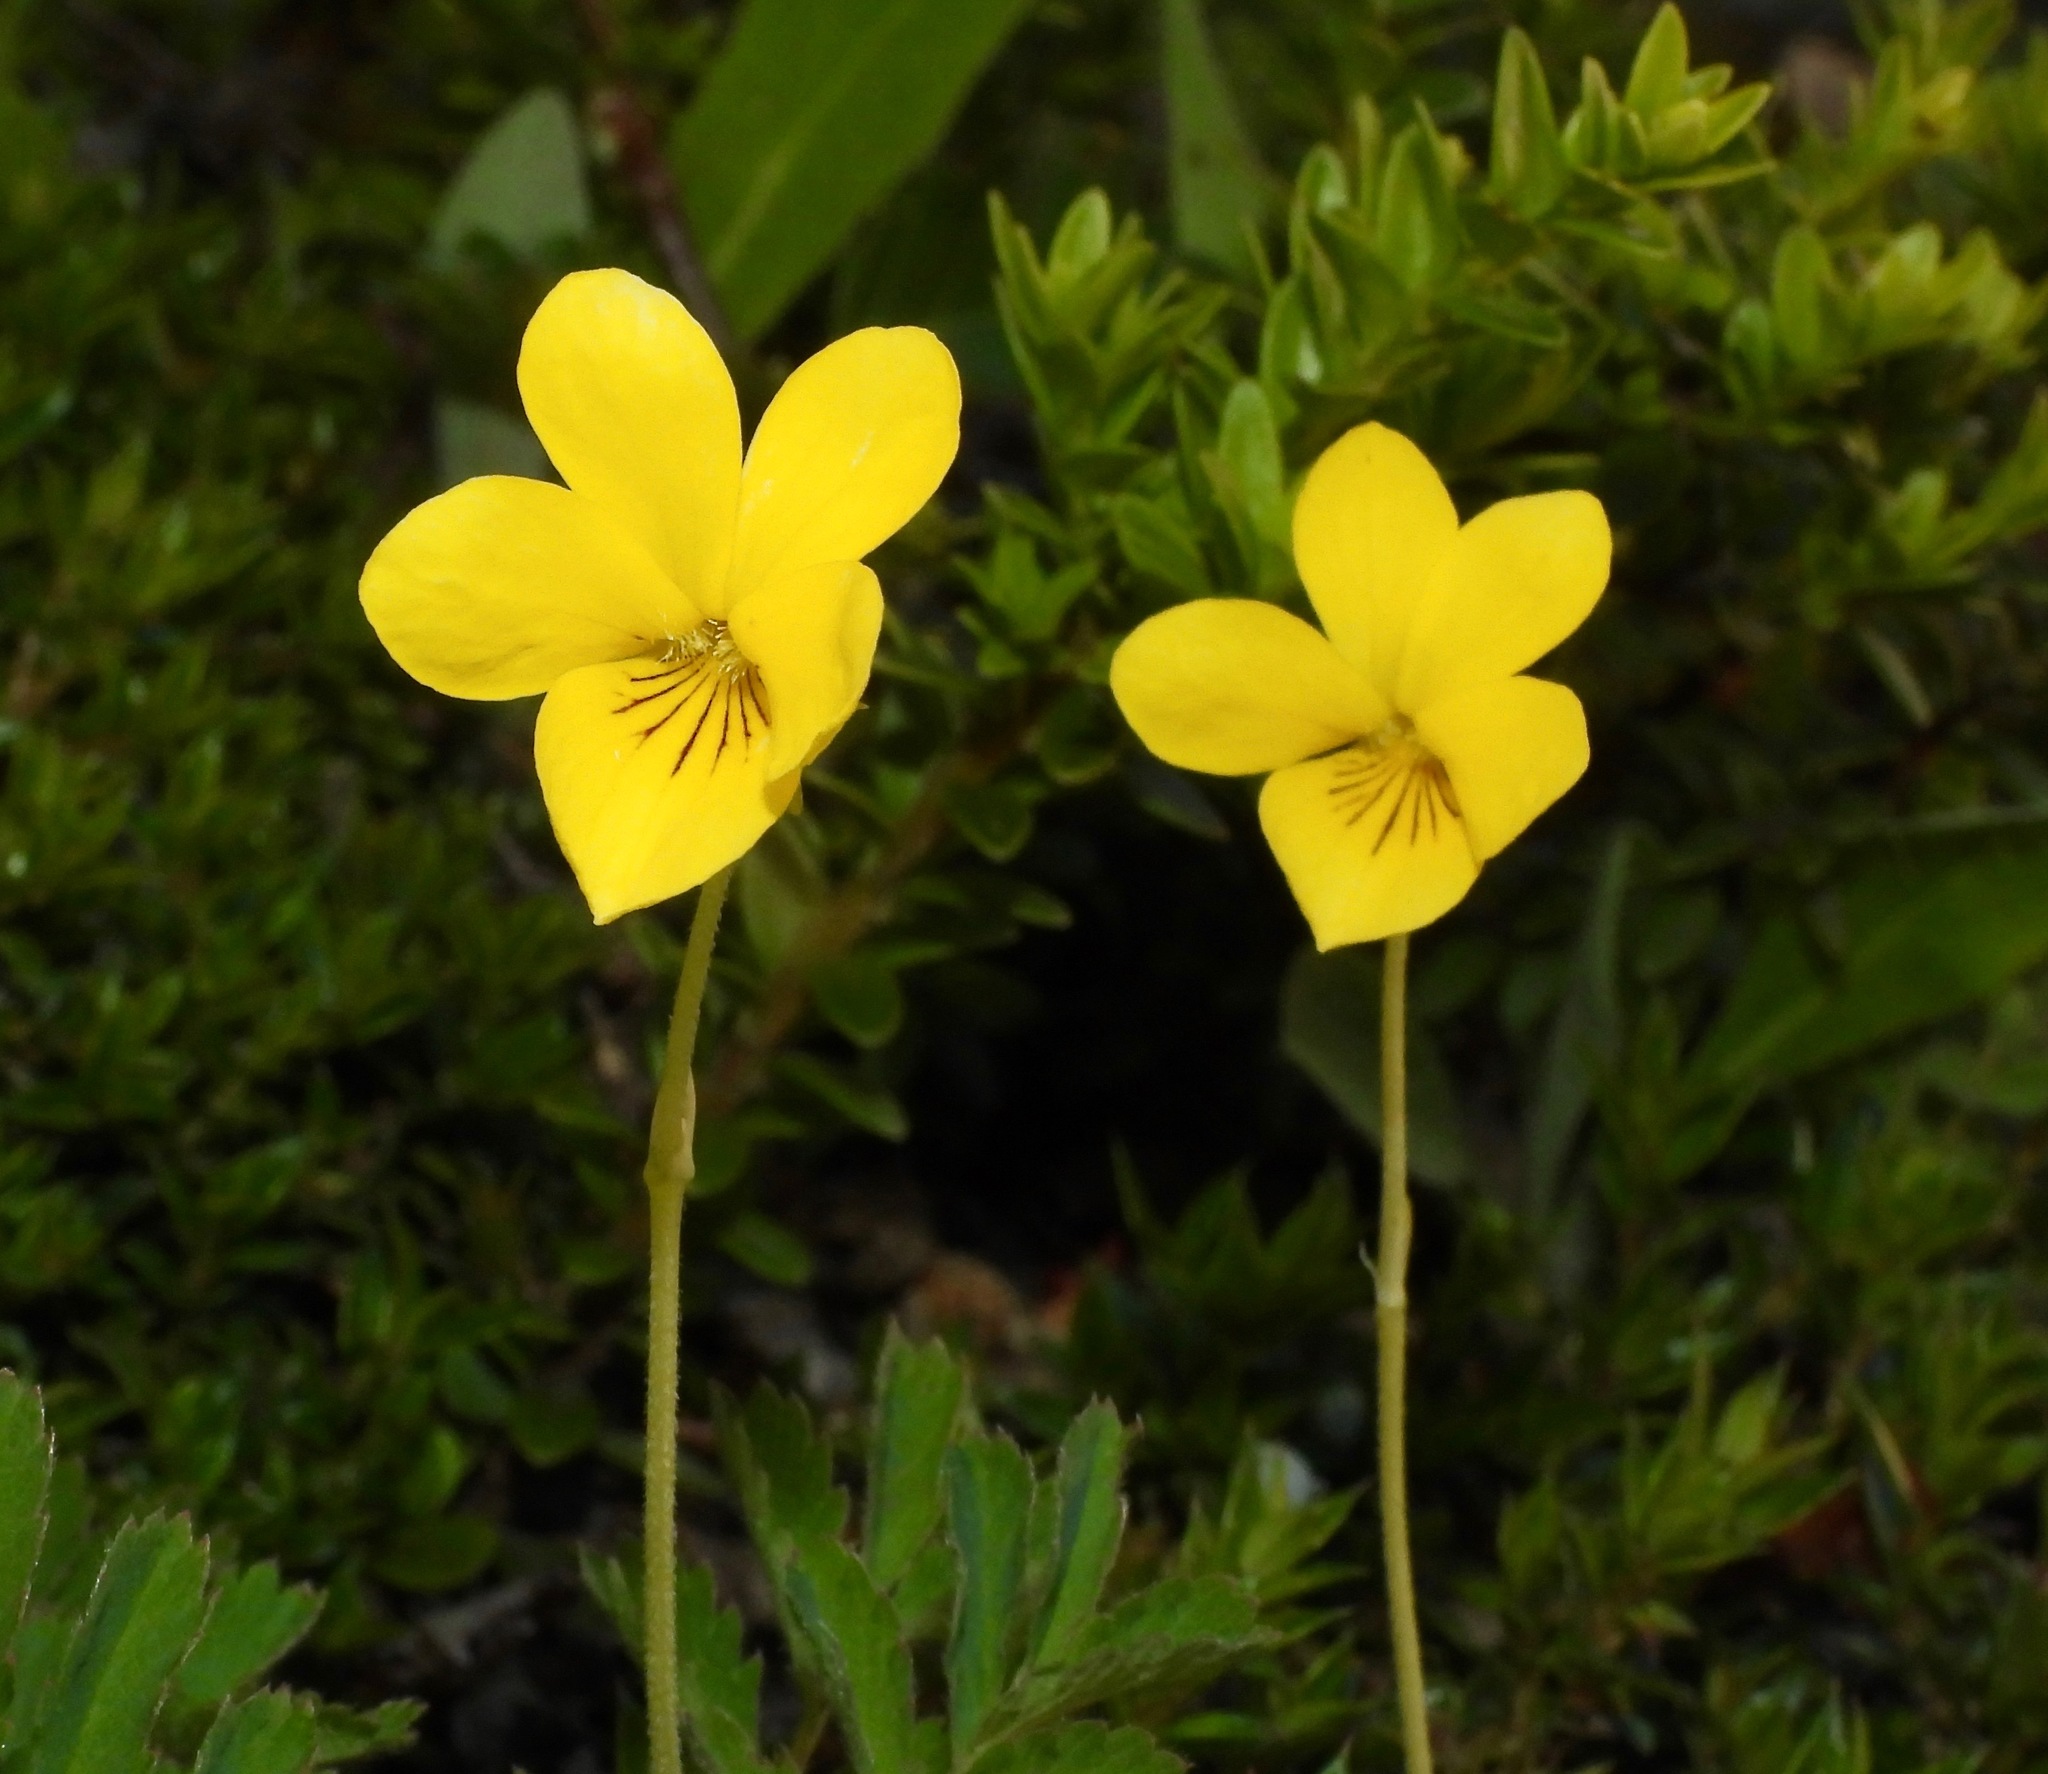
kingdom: Plantae
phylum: Tracheophyta
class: Magnoliopsida
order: Malpighiales
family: Violaceae
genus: Viola
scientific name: Viola magellanica
